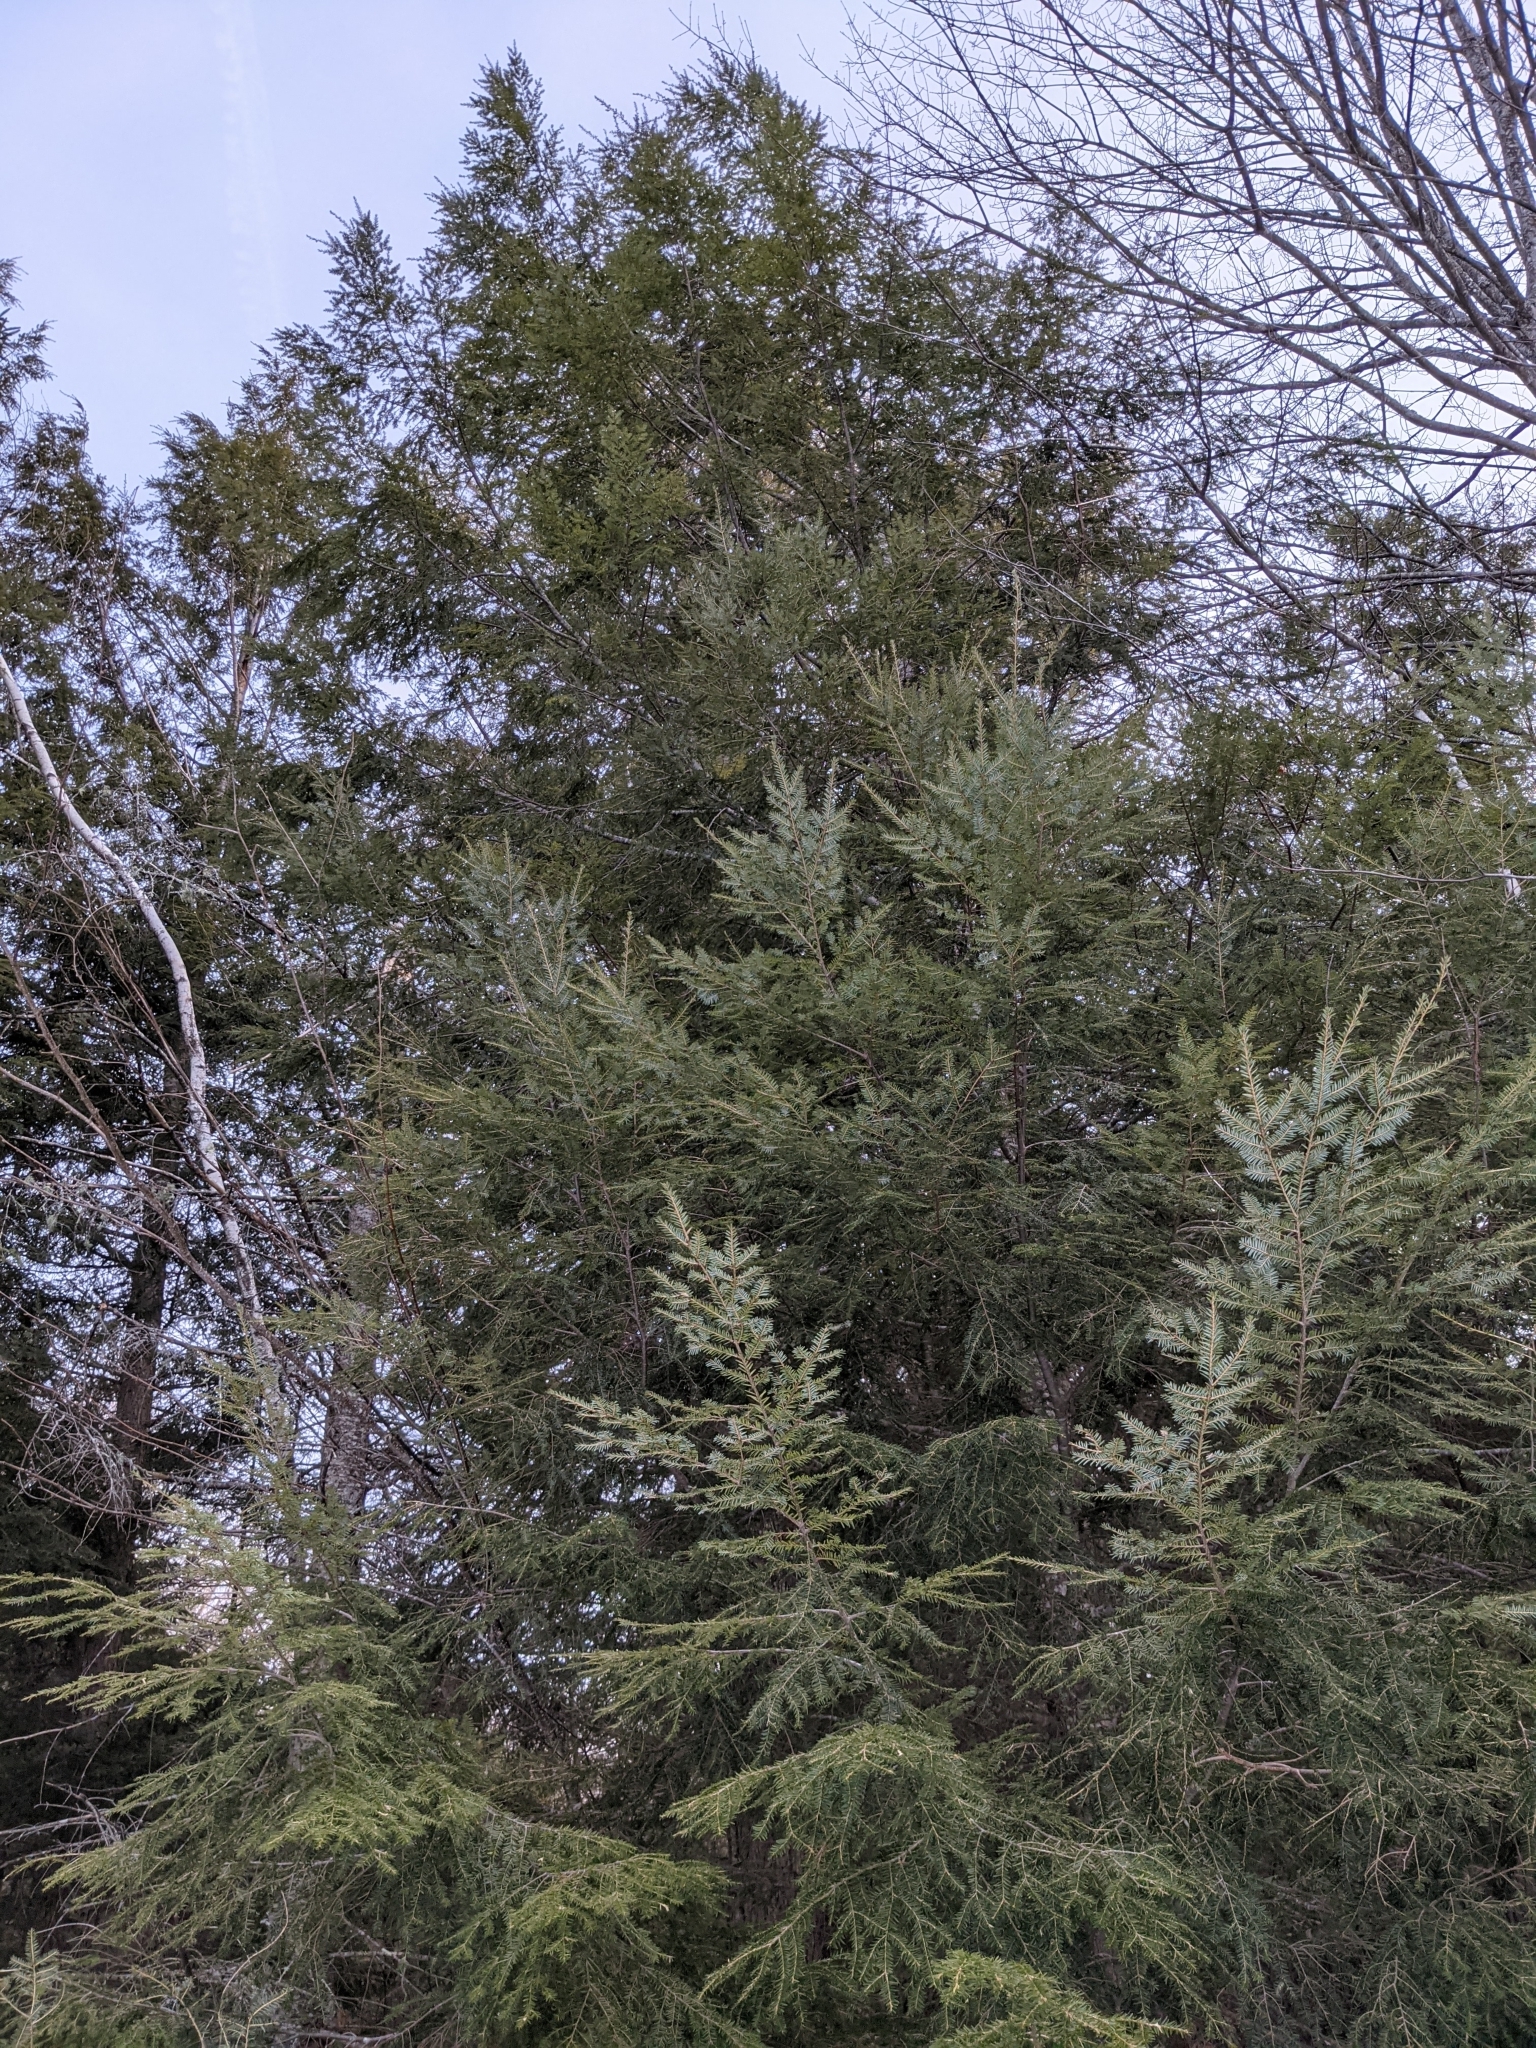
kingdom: Plantae
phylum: Tracheophyta
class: Pinopsida
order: Pinales
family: Pinaceae
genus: Tsuga
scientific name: Tsuga canadensis
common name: Eastern hemlock
